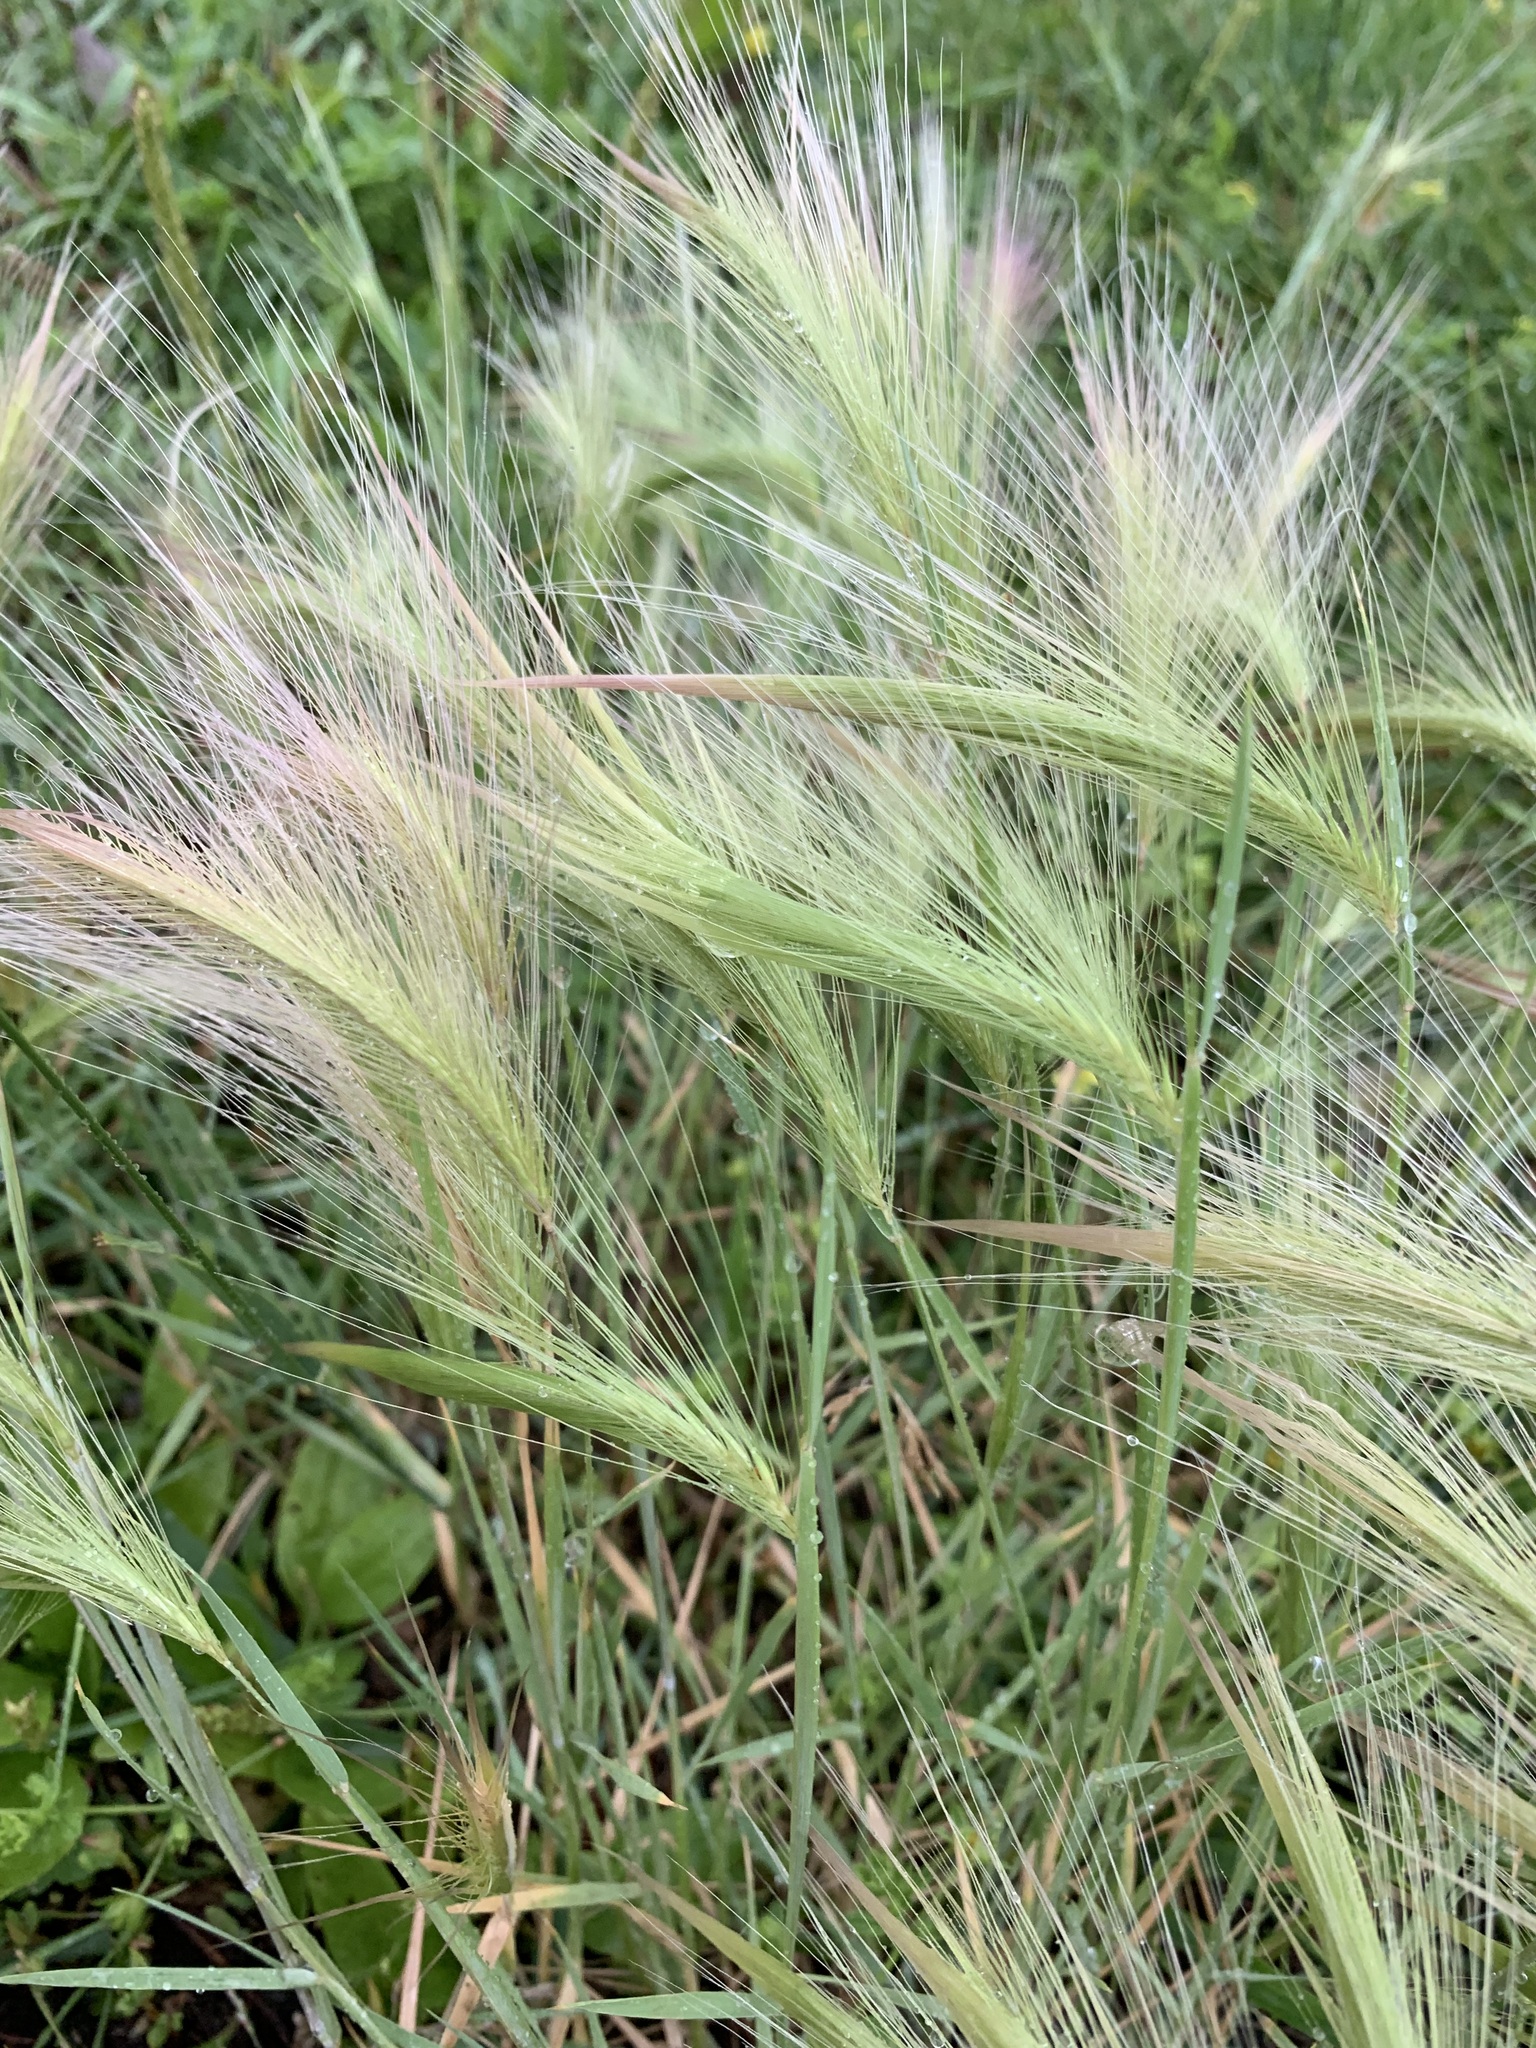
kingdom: Plantae
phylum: Tracheophyta
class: Liliopsida
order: Poales
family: Poaceae
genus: Hordeum
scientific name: Hordeum jubatum
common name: Foxtail barley
